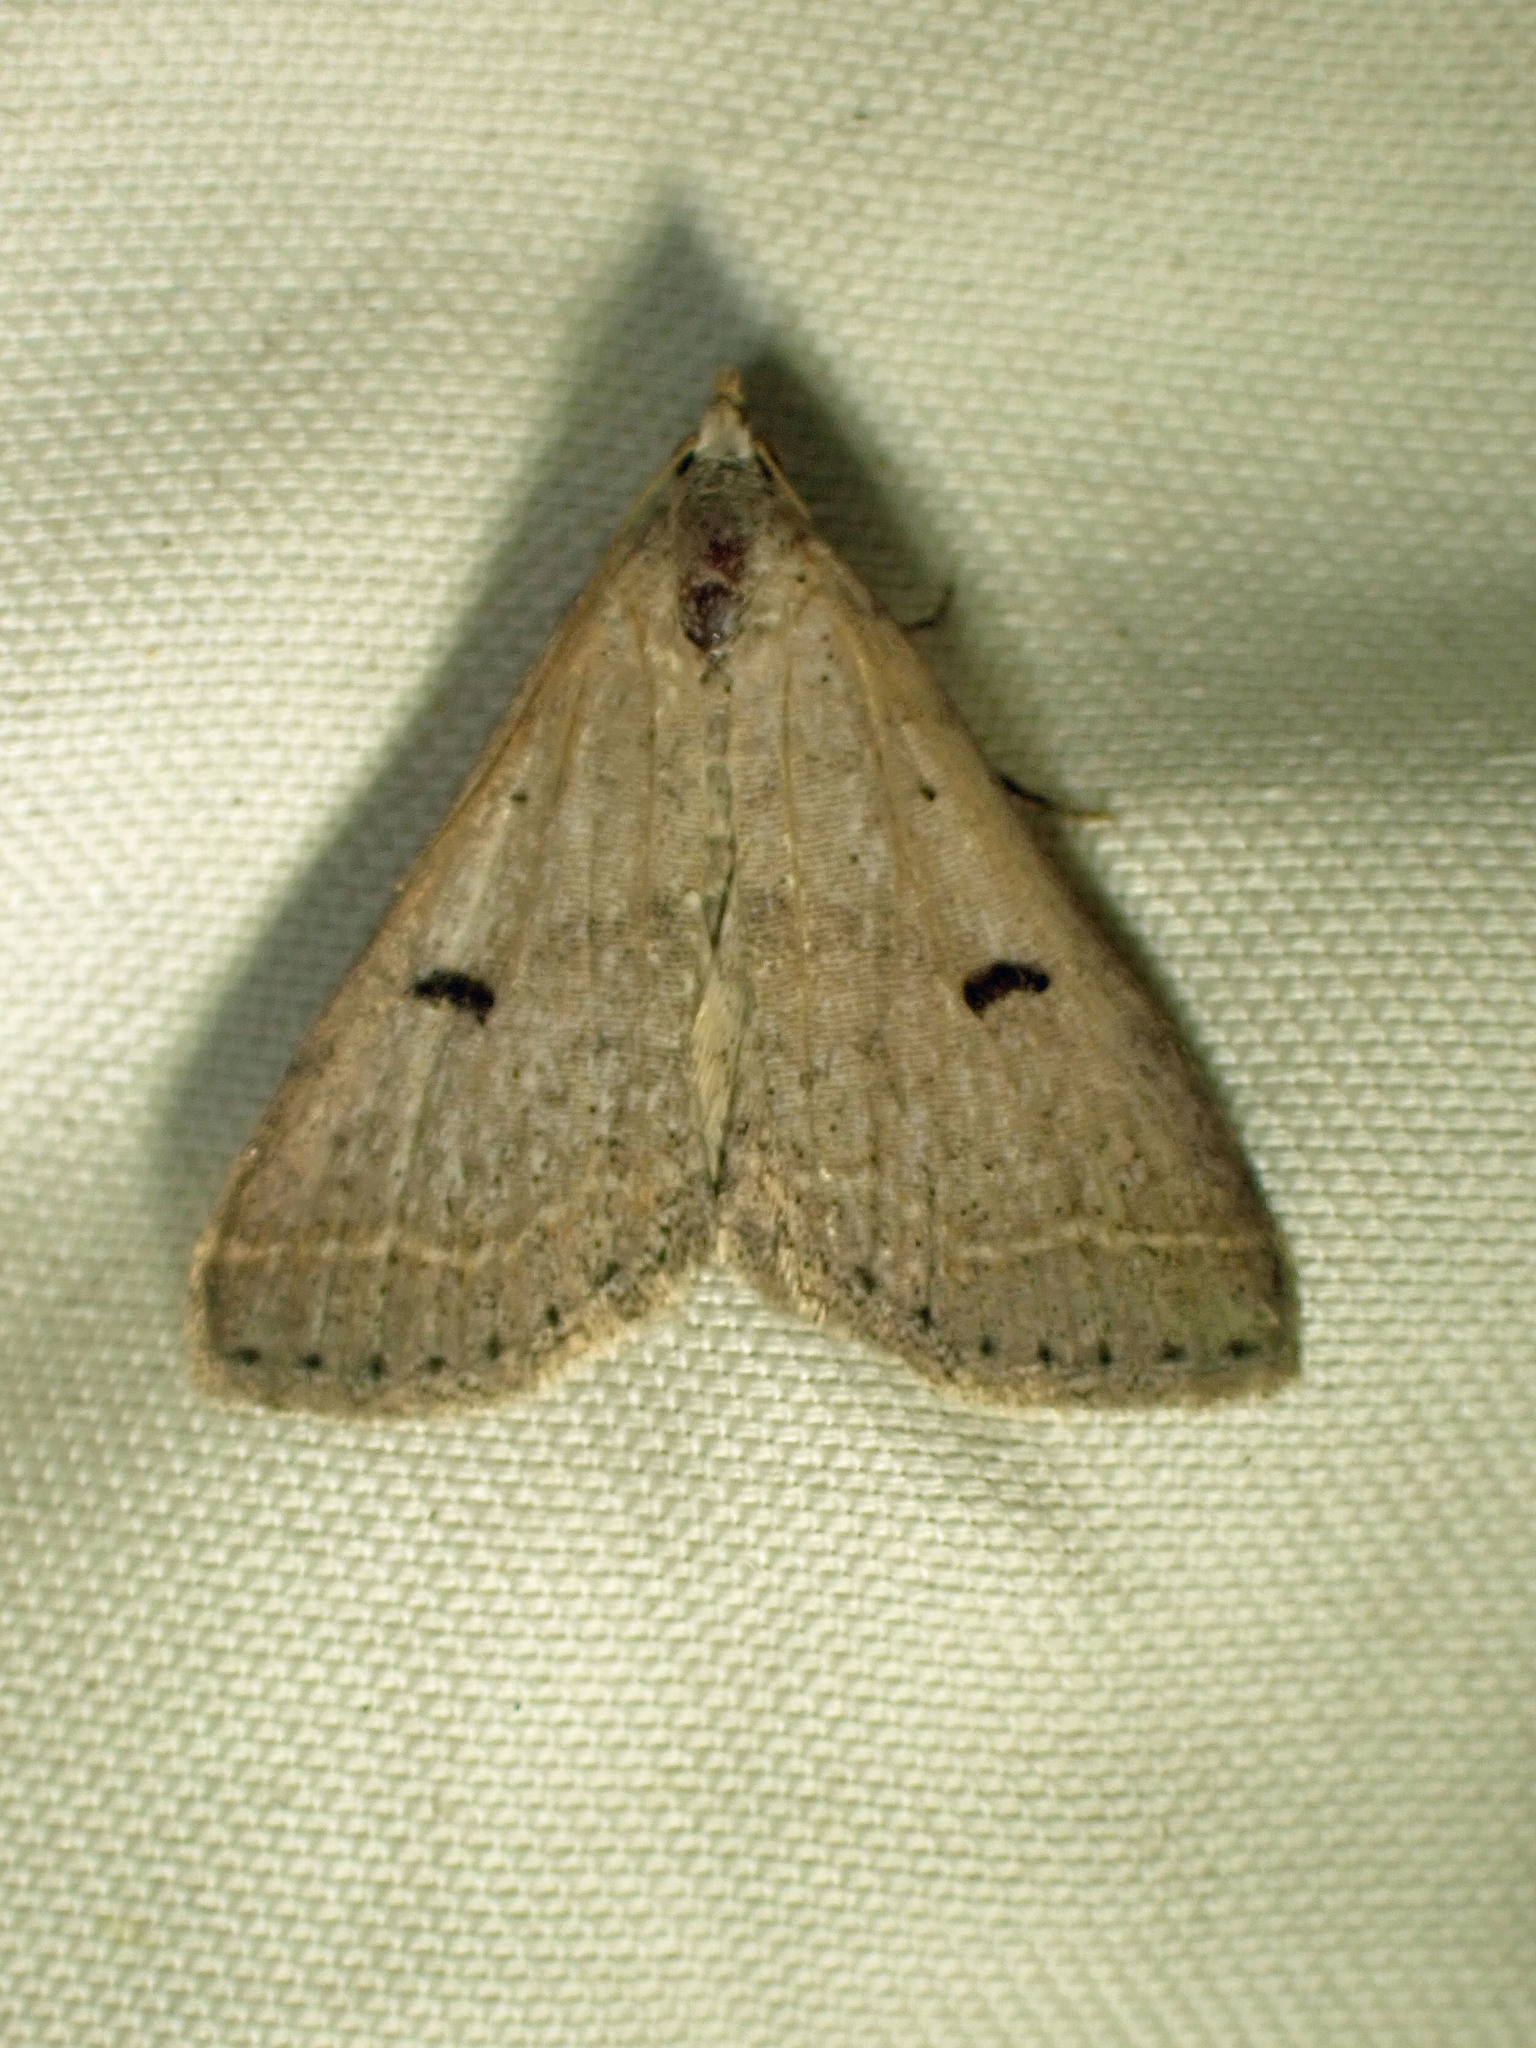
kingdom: Animalia
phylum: Arthropoda
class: Insecta
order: Lepidoptera
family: Erebidae
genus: Bleptina
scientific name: Bleptina caradrinalis
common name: Bent-winged owlet
